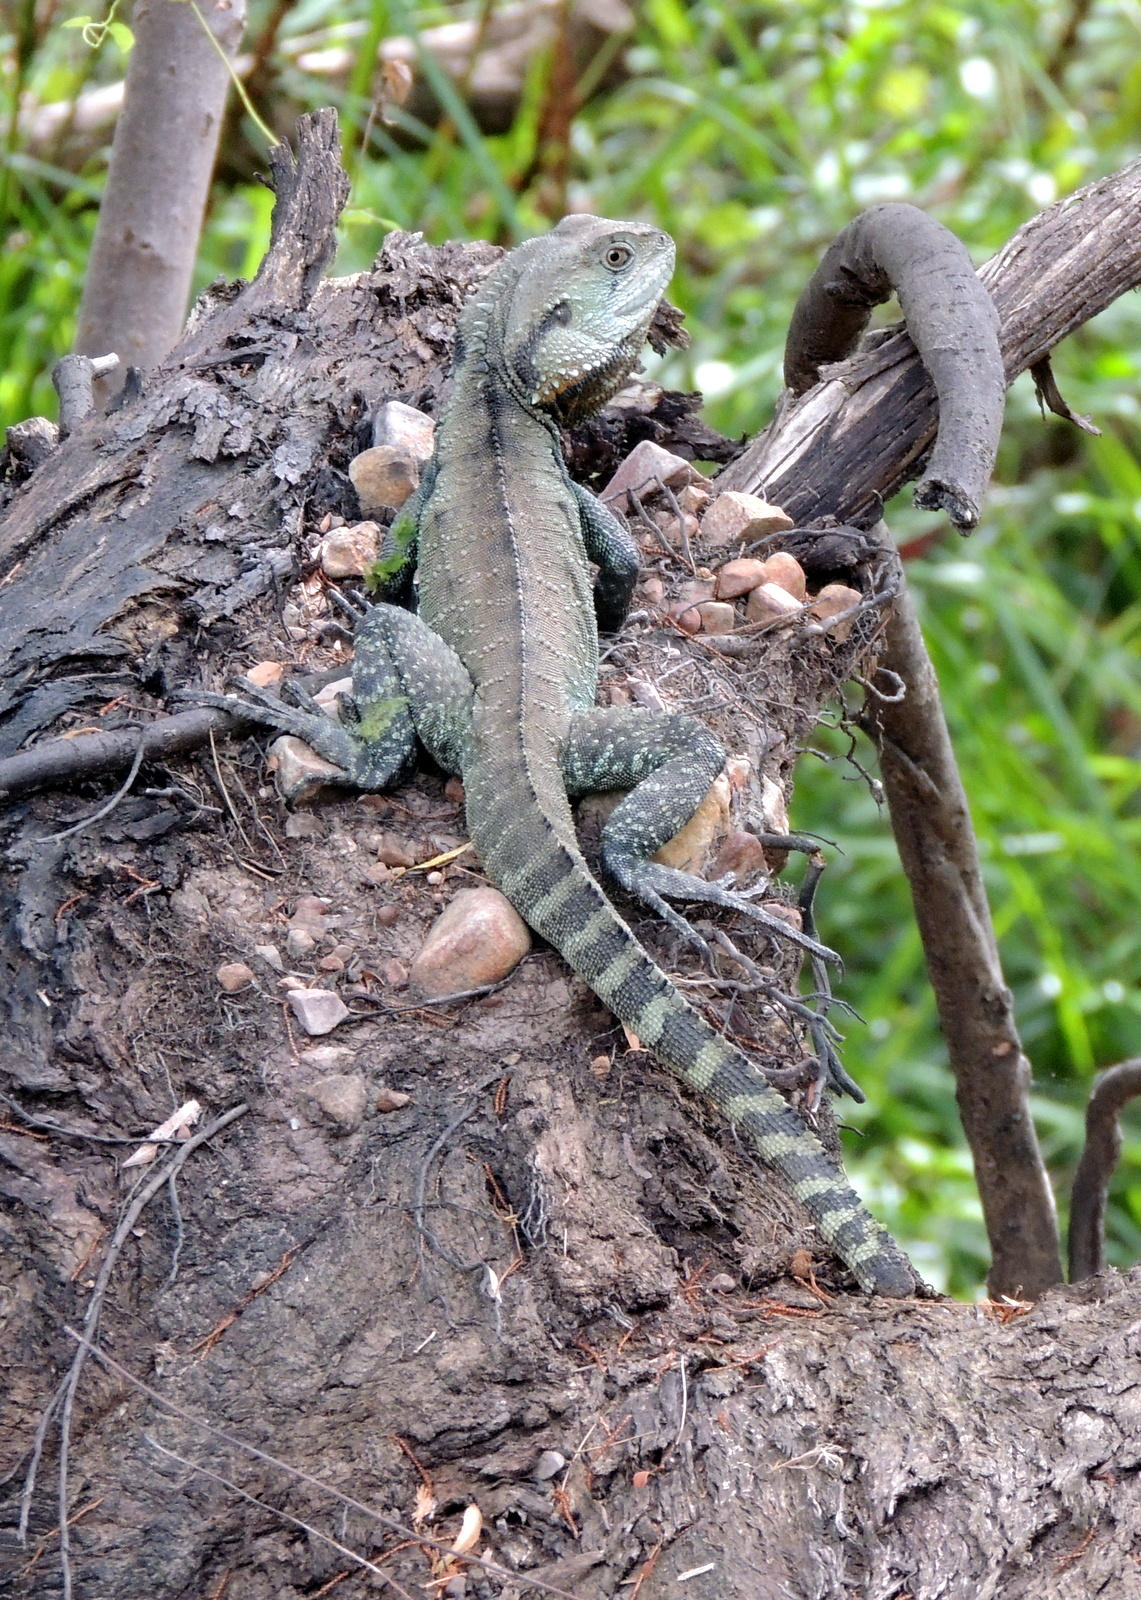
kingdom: Animalia
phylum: Chordata
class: Squamata
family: Agamidae
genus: Intellagama
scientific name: Intellagama lesueurii
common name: Eastern water dragon
